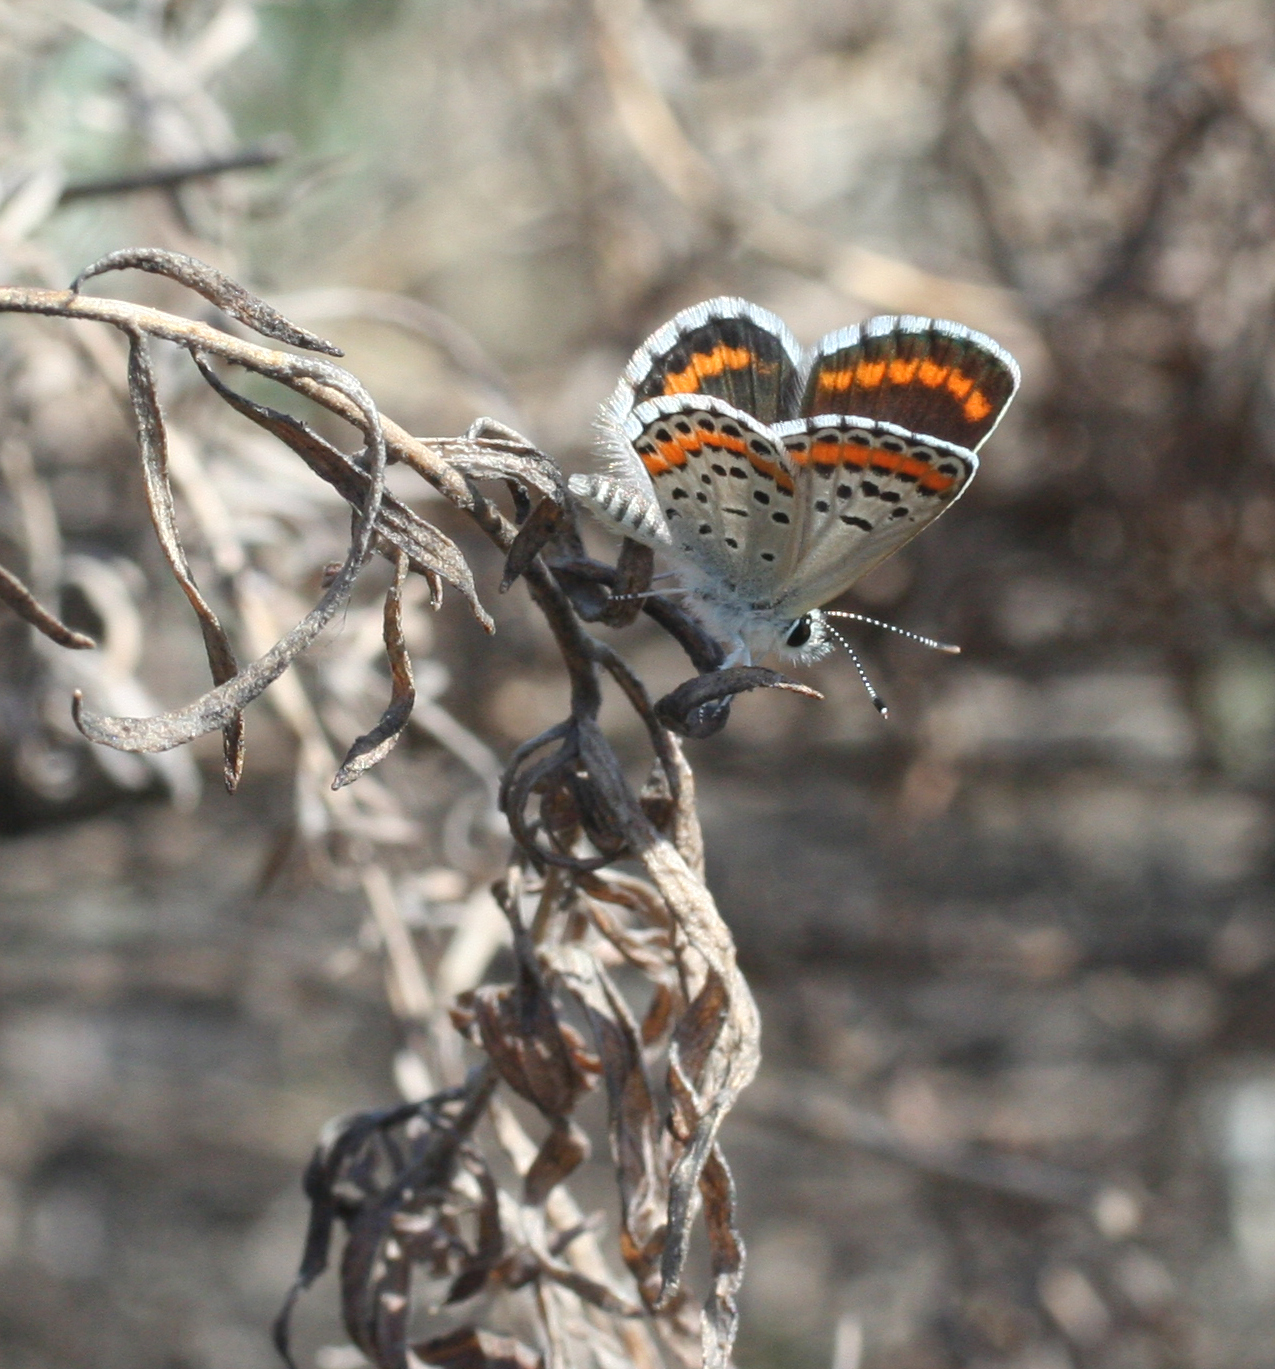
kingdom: Animalia
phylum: Arthropoda
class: Insecta
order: Lepidoptera
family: Lycaenidae
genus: Aricia
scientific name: Aricia chinensis
